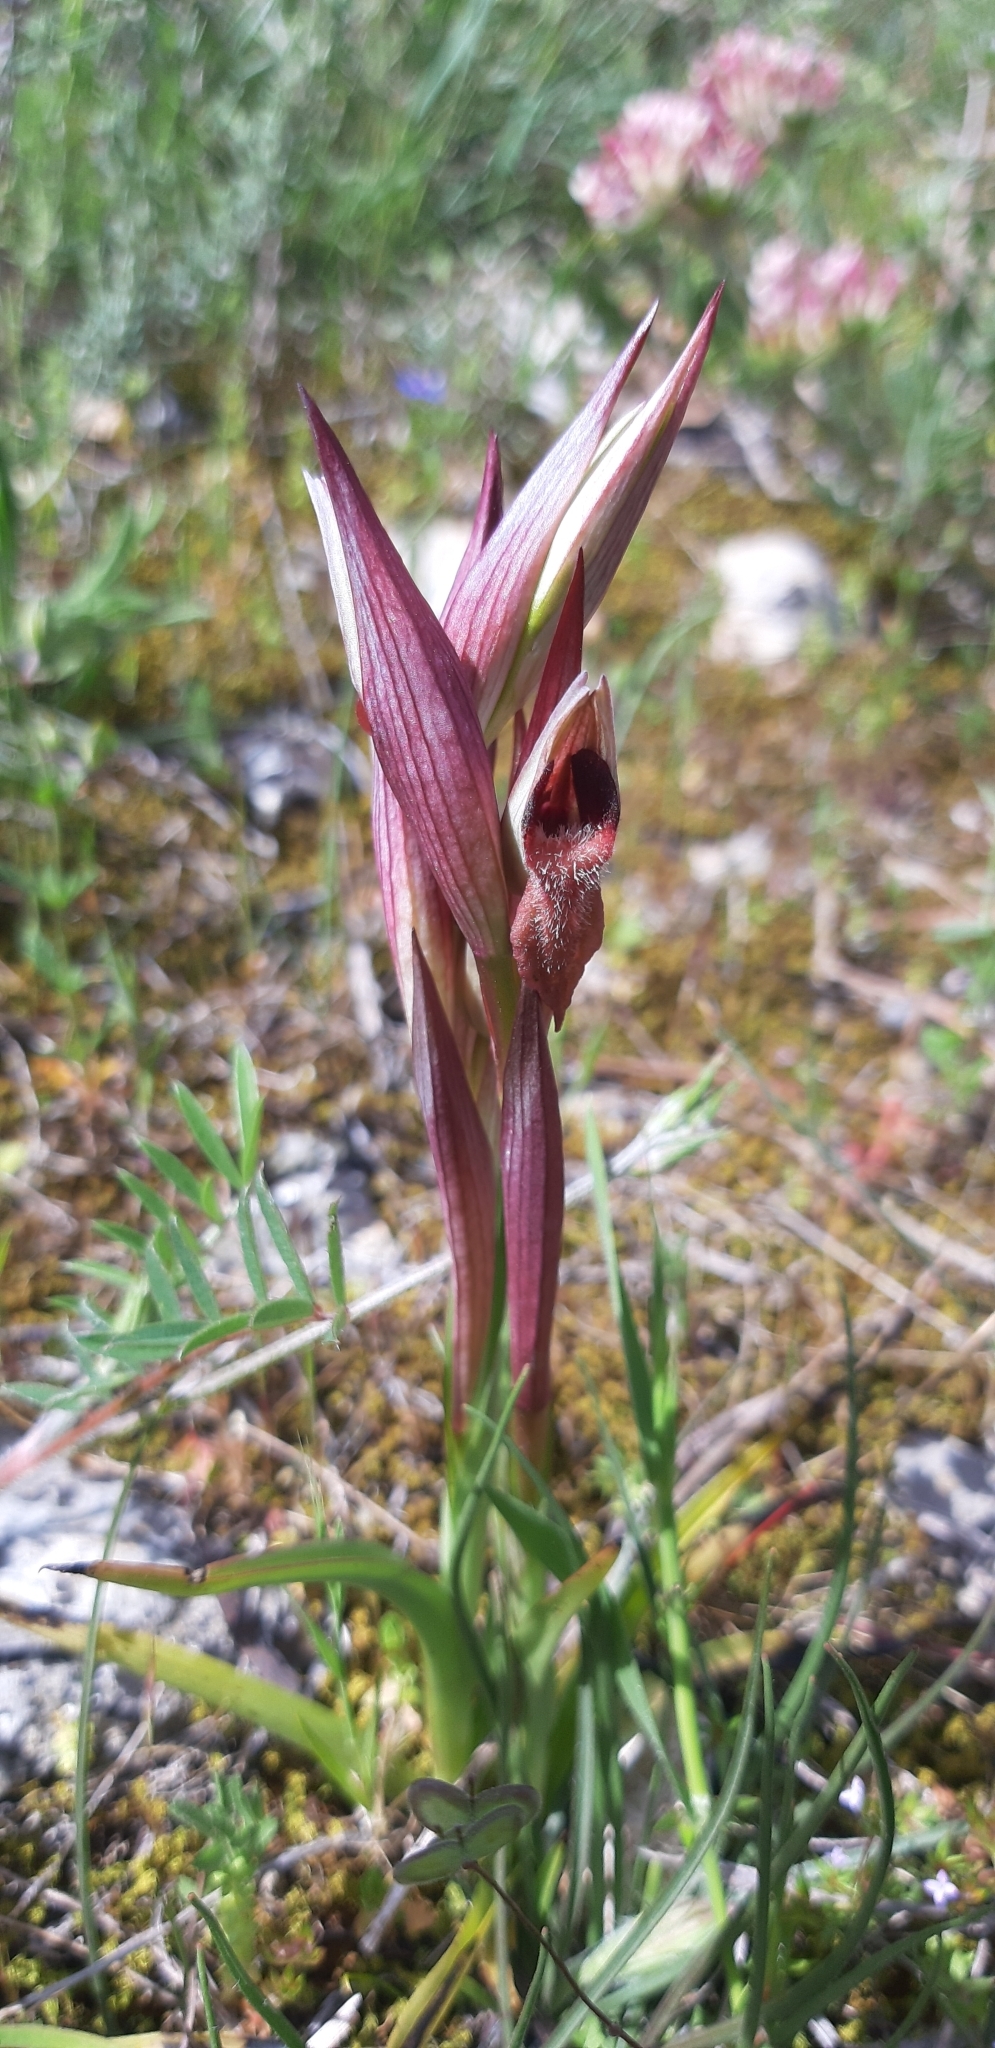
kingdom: Plantae
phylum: Tracheophyta
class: Liliopsida
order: Asparagales
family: Orchidaceae
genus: Serapias
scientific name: Serapias vomeracea
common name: Long-lipped tongue-orchid
